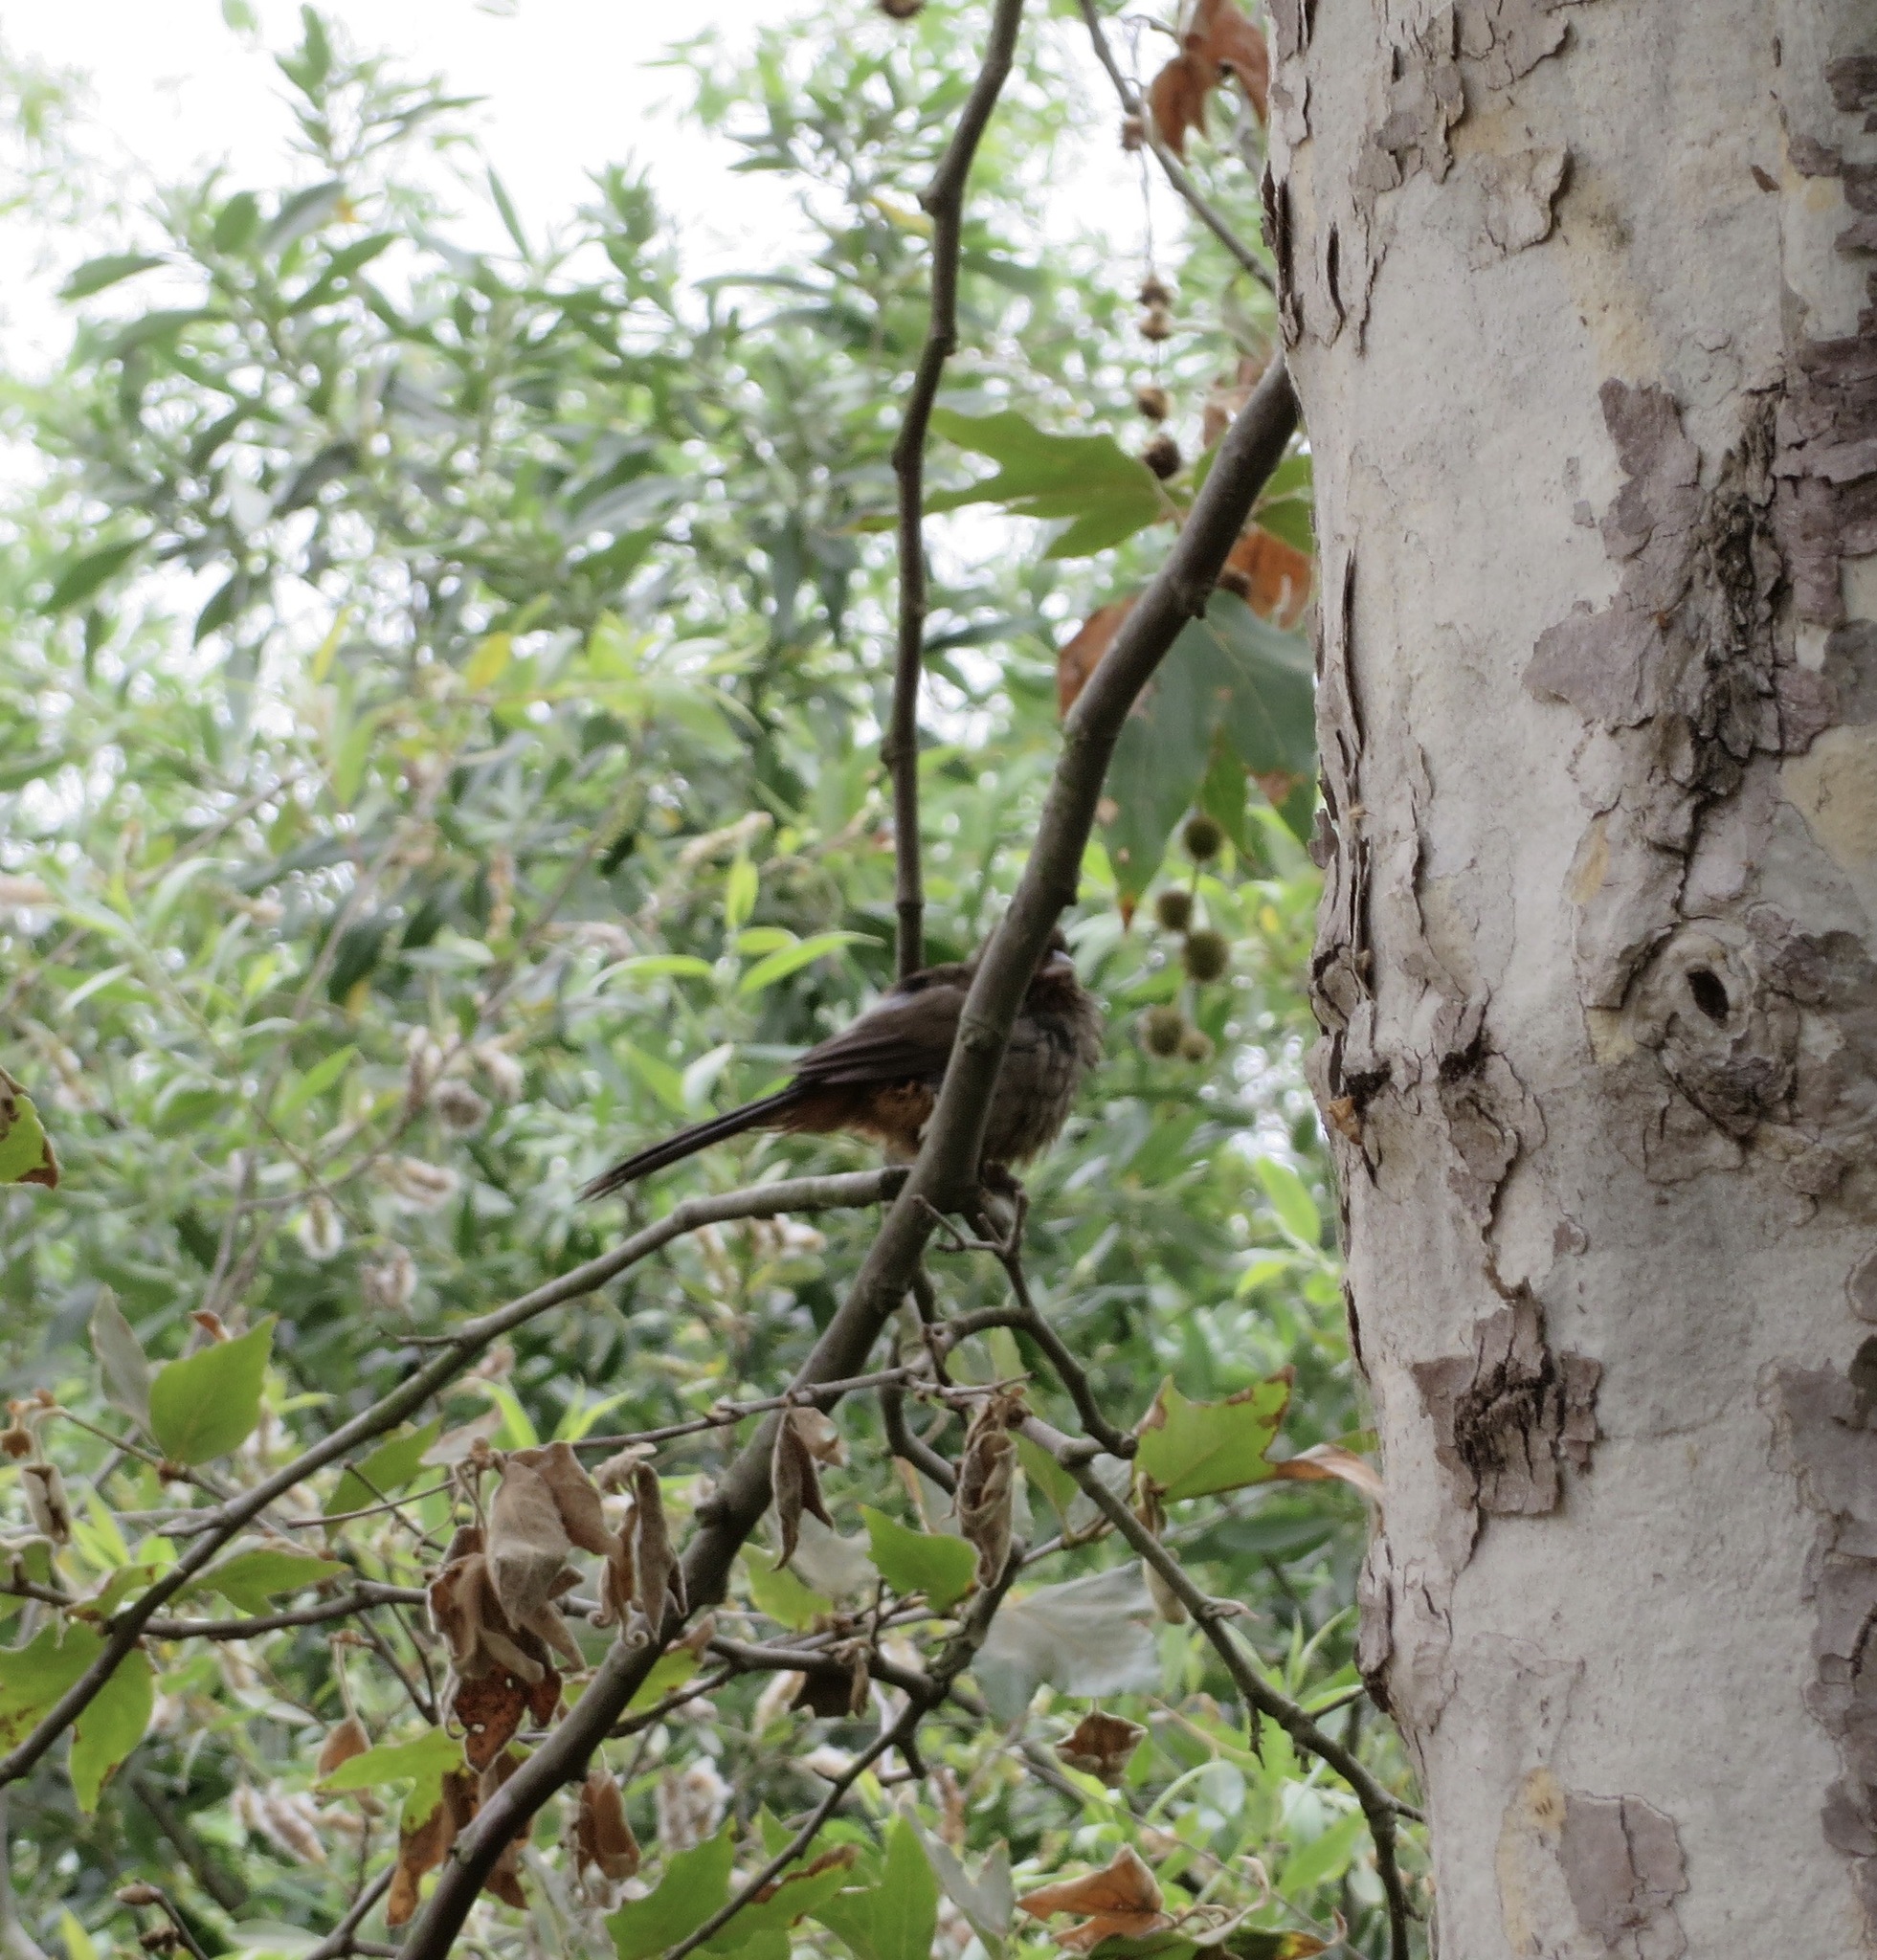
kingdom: Animalia
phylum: Chordata
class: Aves
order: Passeriformes
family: Passerellidae
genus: Melozone
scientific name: Melozone crissalis
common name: California towhee
